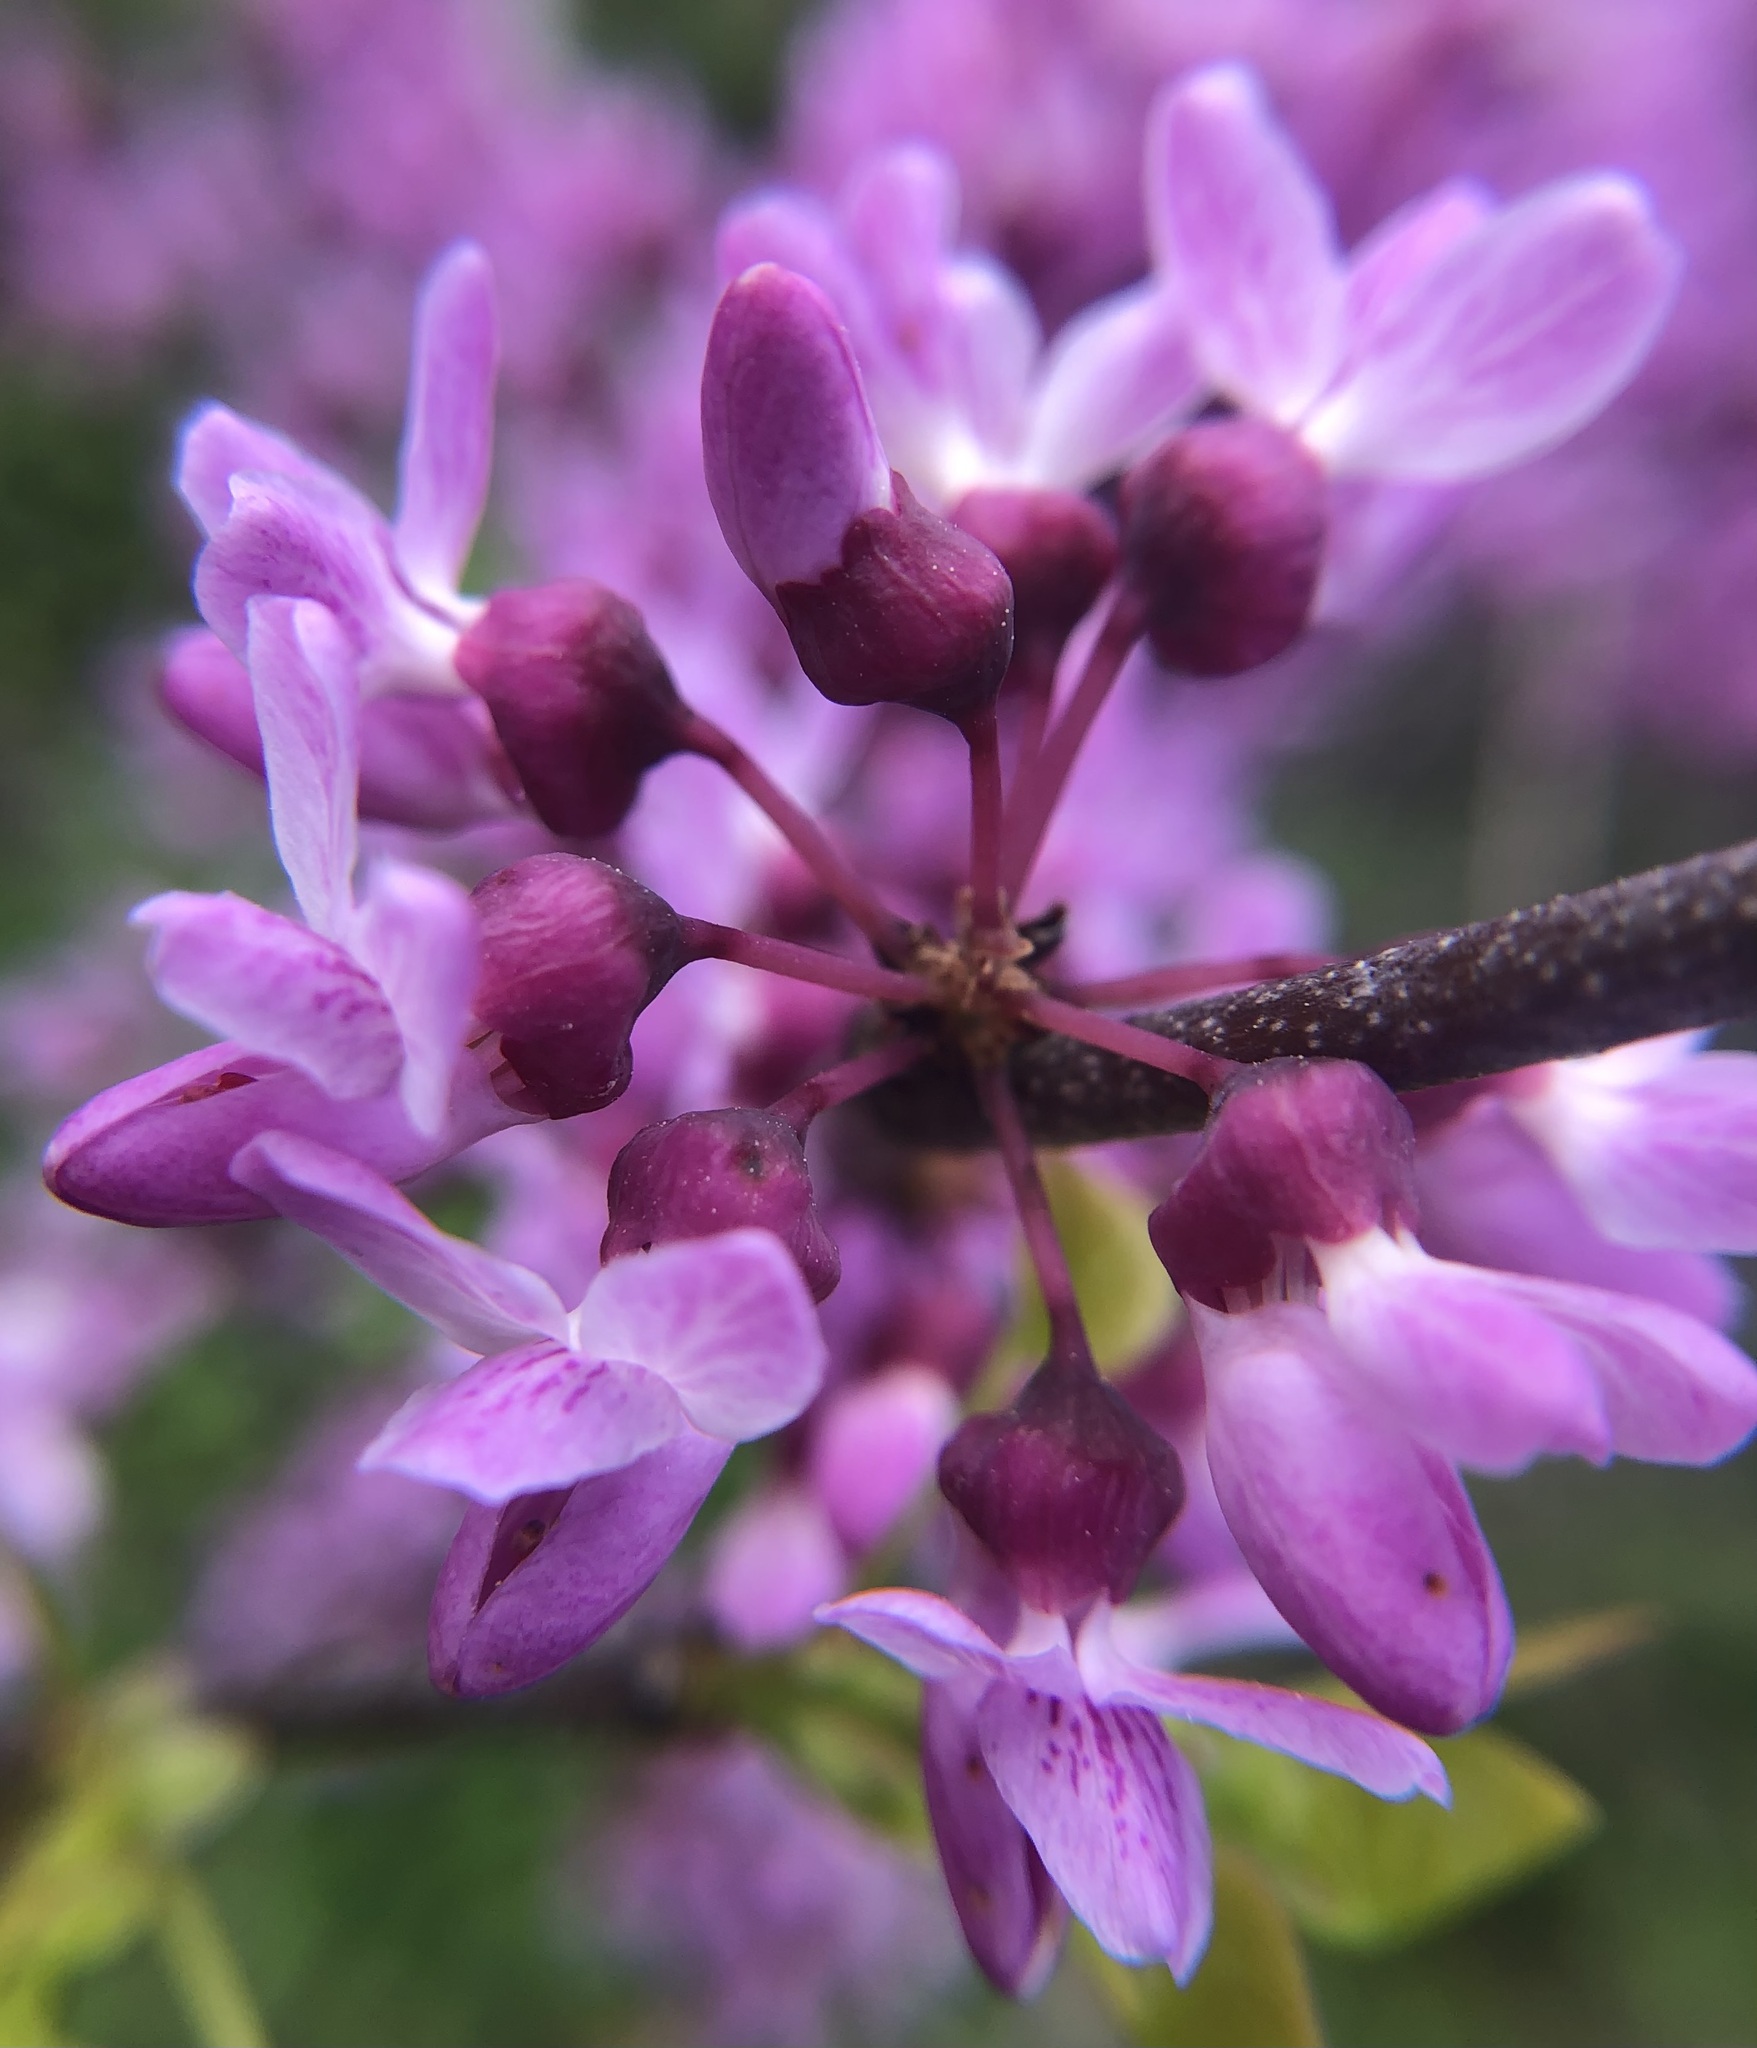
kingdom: Plantae
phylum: Tracheophyta
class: Magnoliopsida
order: Fabales
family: Fabaceae
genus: Cercis
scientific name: Cercis canadensis
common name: Eastern redbud
